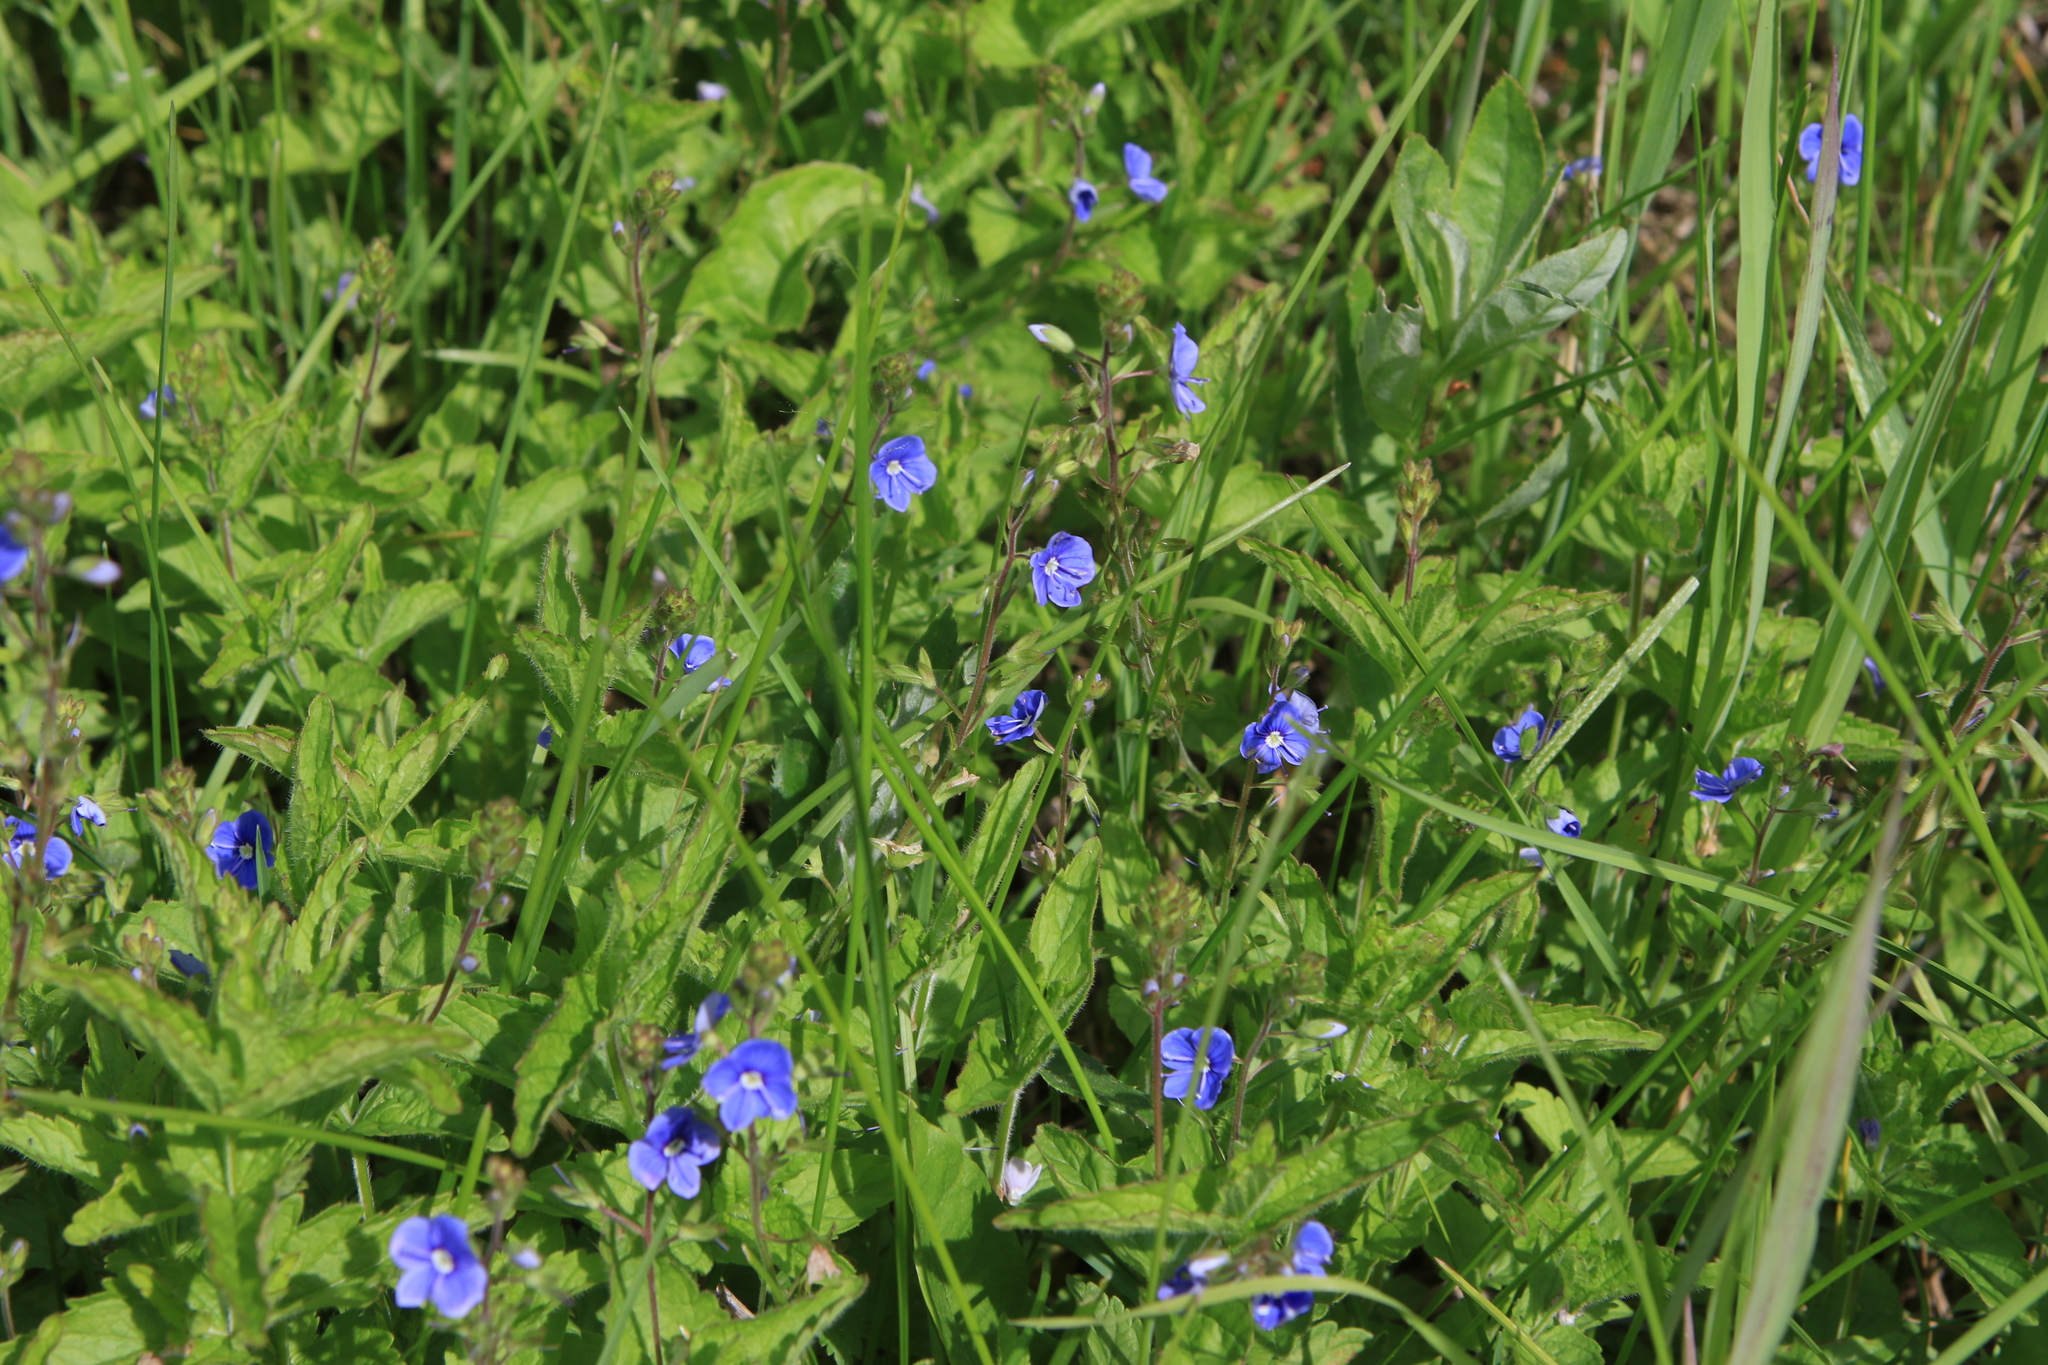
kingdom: Plantae
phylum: Tracheophyta
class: Magnoliopsida
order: Lamiales
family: Plantaginaceae
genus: Veronica
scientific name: Veronica chamaedrys
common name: Germander speedwell
